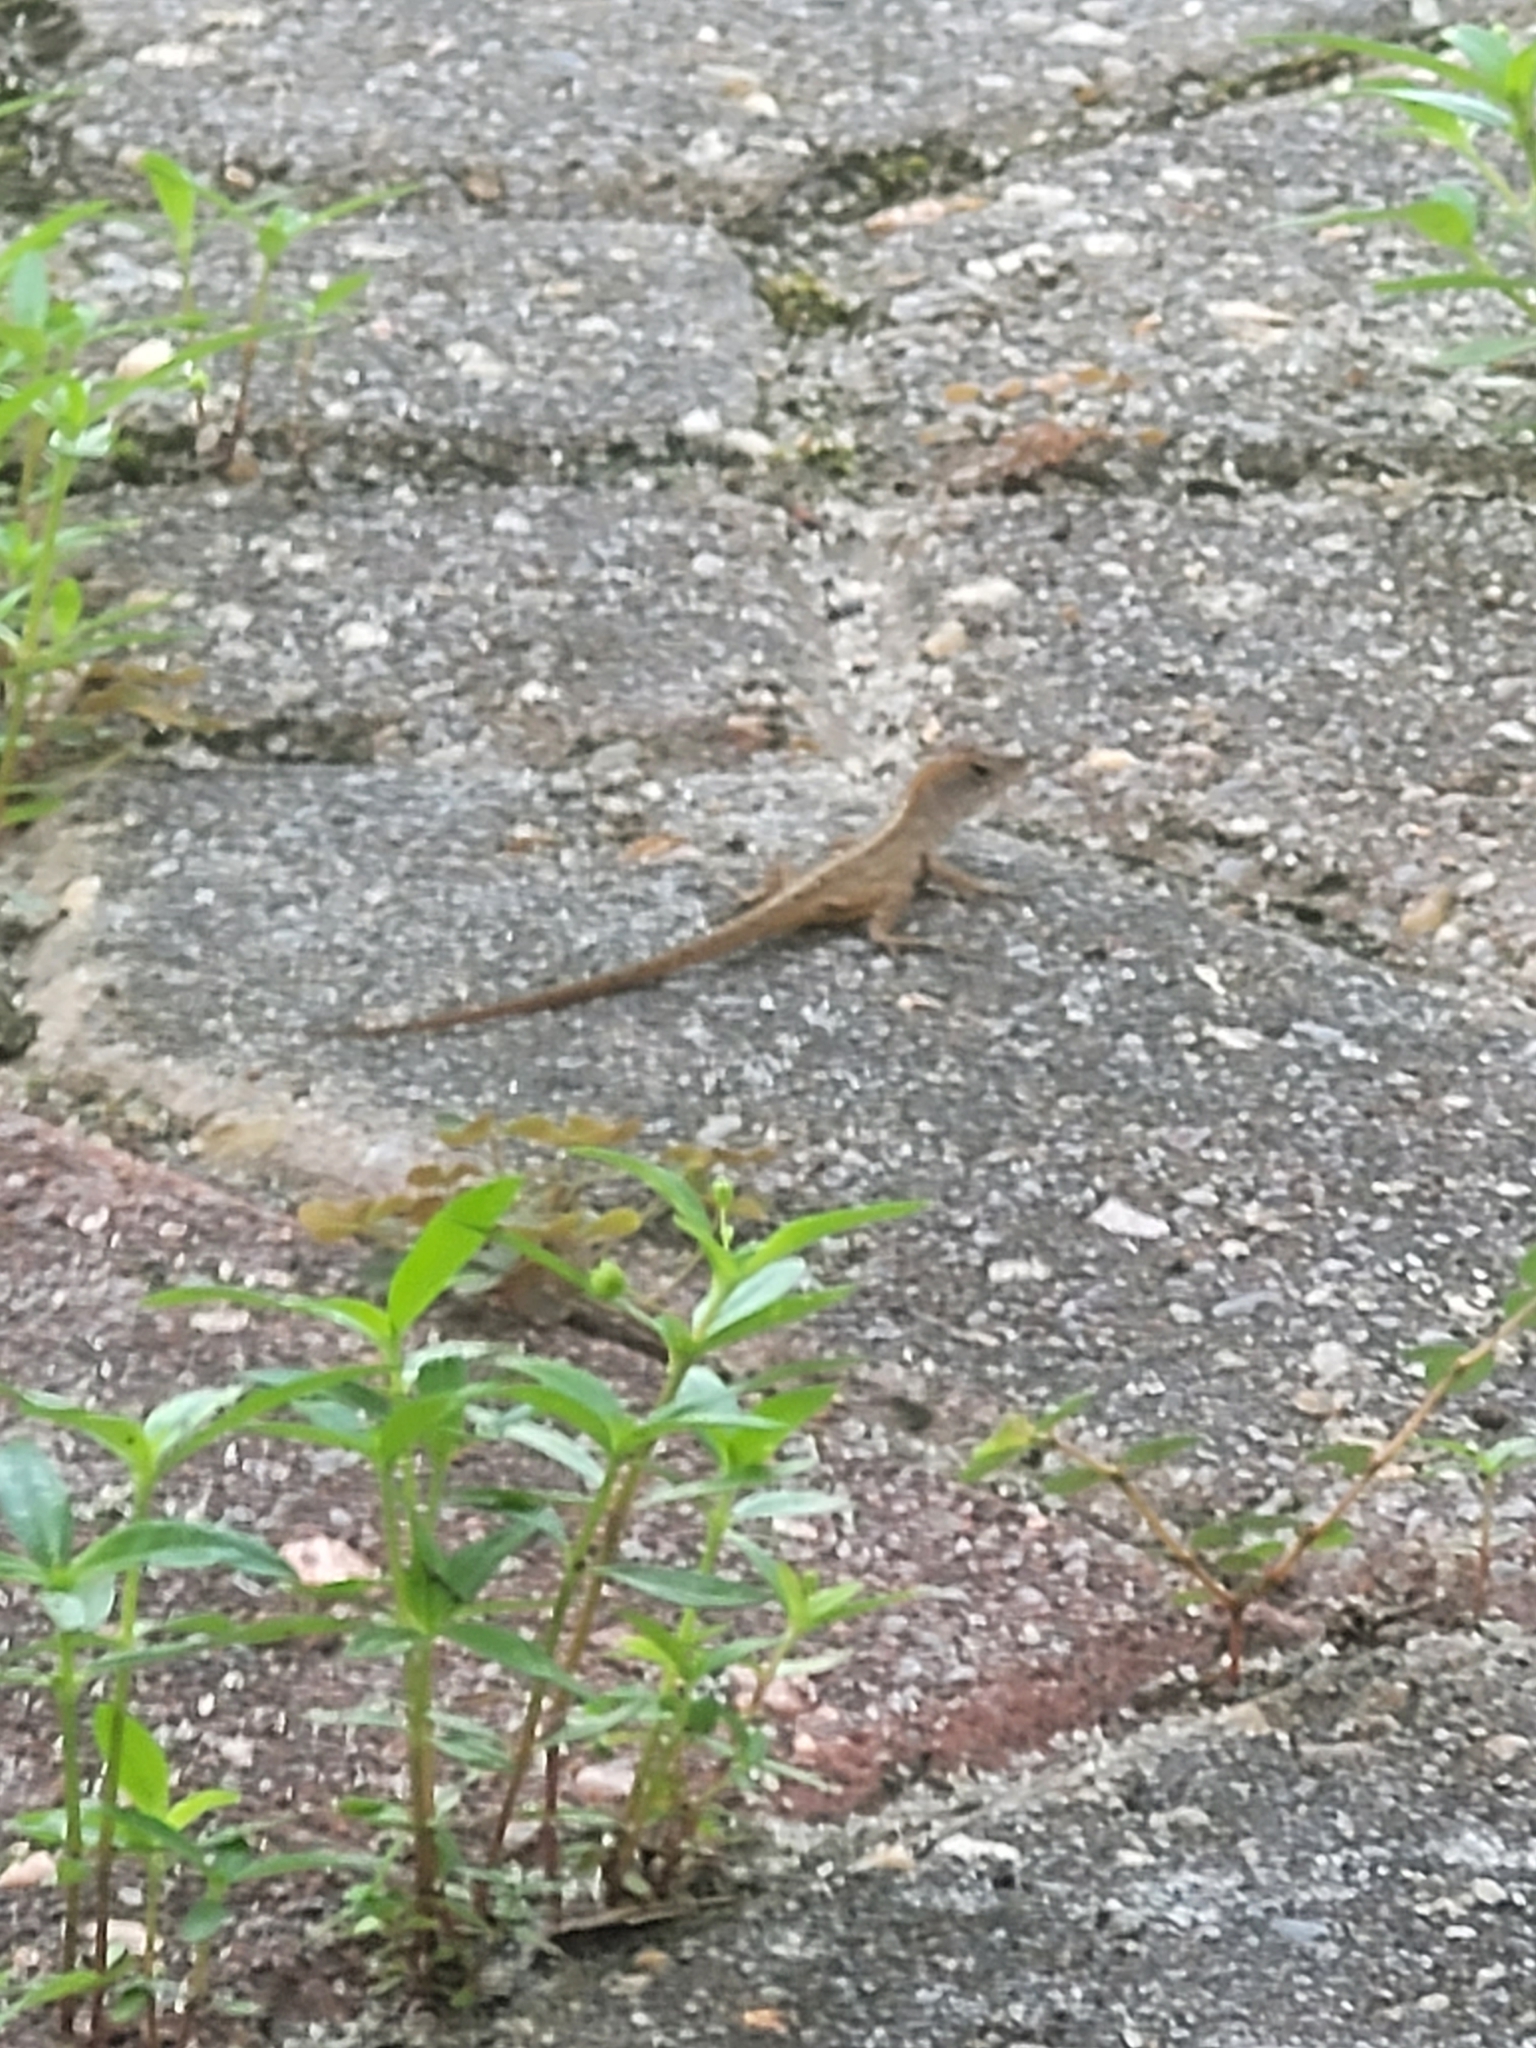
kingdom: Animalia
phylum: Chordata
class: Squamata
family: Dactyloidae
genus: Anolis
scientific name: Anolis sagrei
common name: Brown anole
